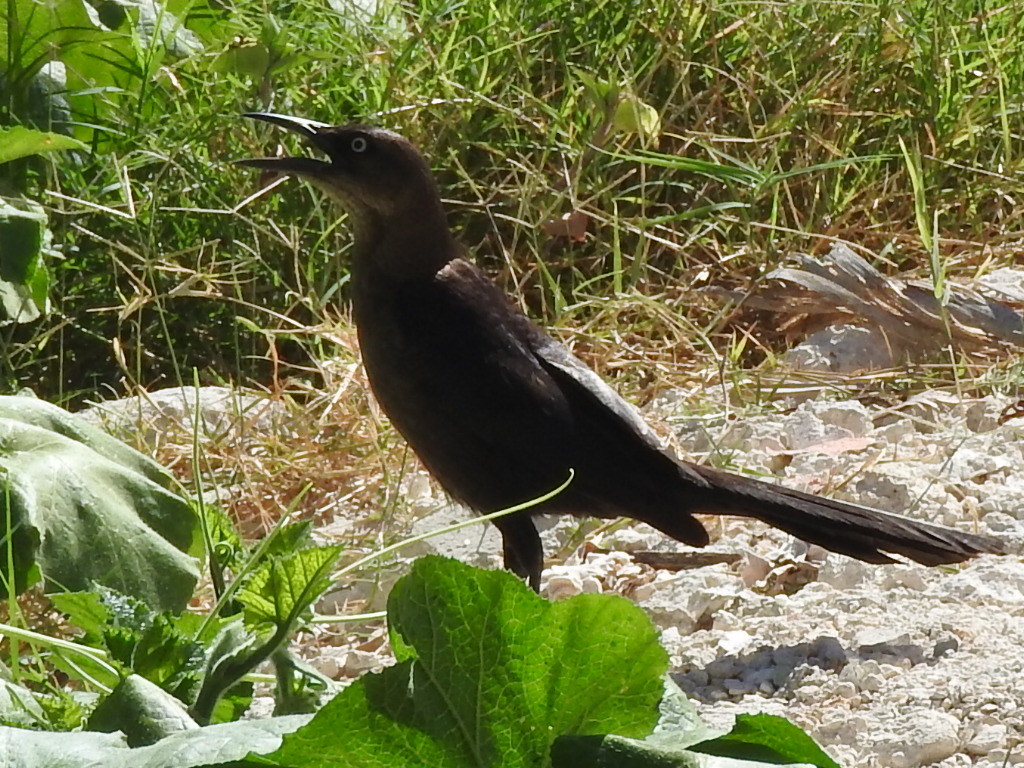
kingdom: Animalia
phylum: Chordata
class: Aves
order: Passeriformes
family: Icteridae
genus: Quiscalus
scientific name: Quiscalus mexicanus
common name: Great-tailed grackle
